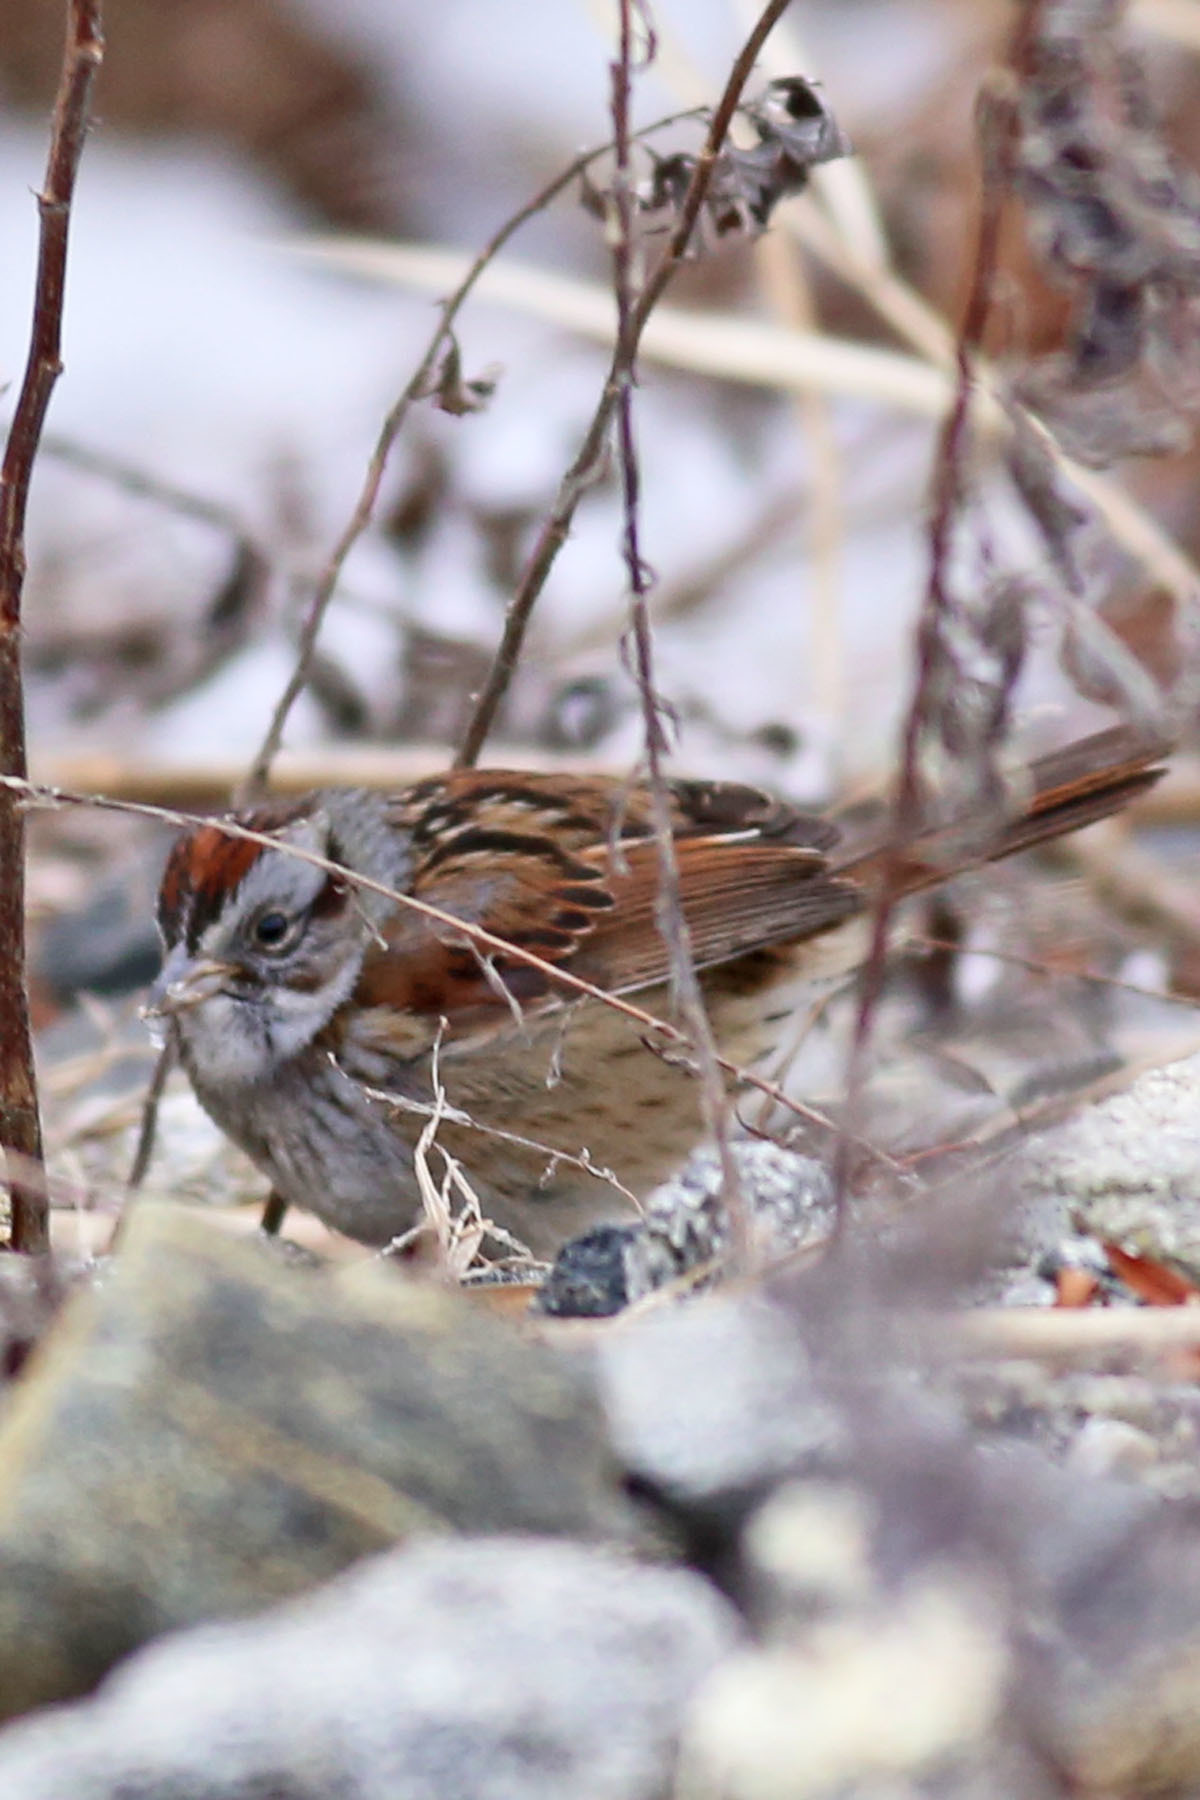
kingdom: Animalia
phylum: Chordata
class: Aves
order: Passeriformes
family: Passerellidae
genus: Melospiza
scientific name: Melospiza georgiana
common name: Swamp sparrow
